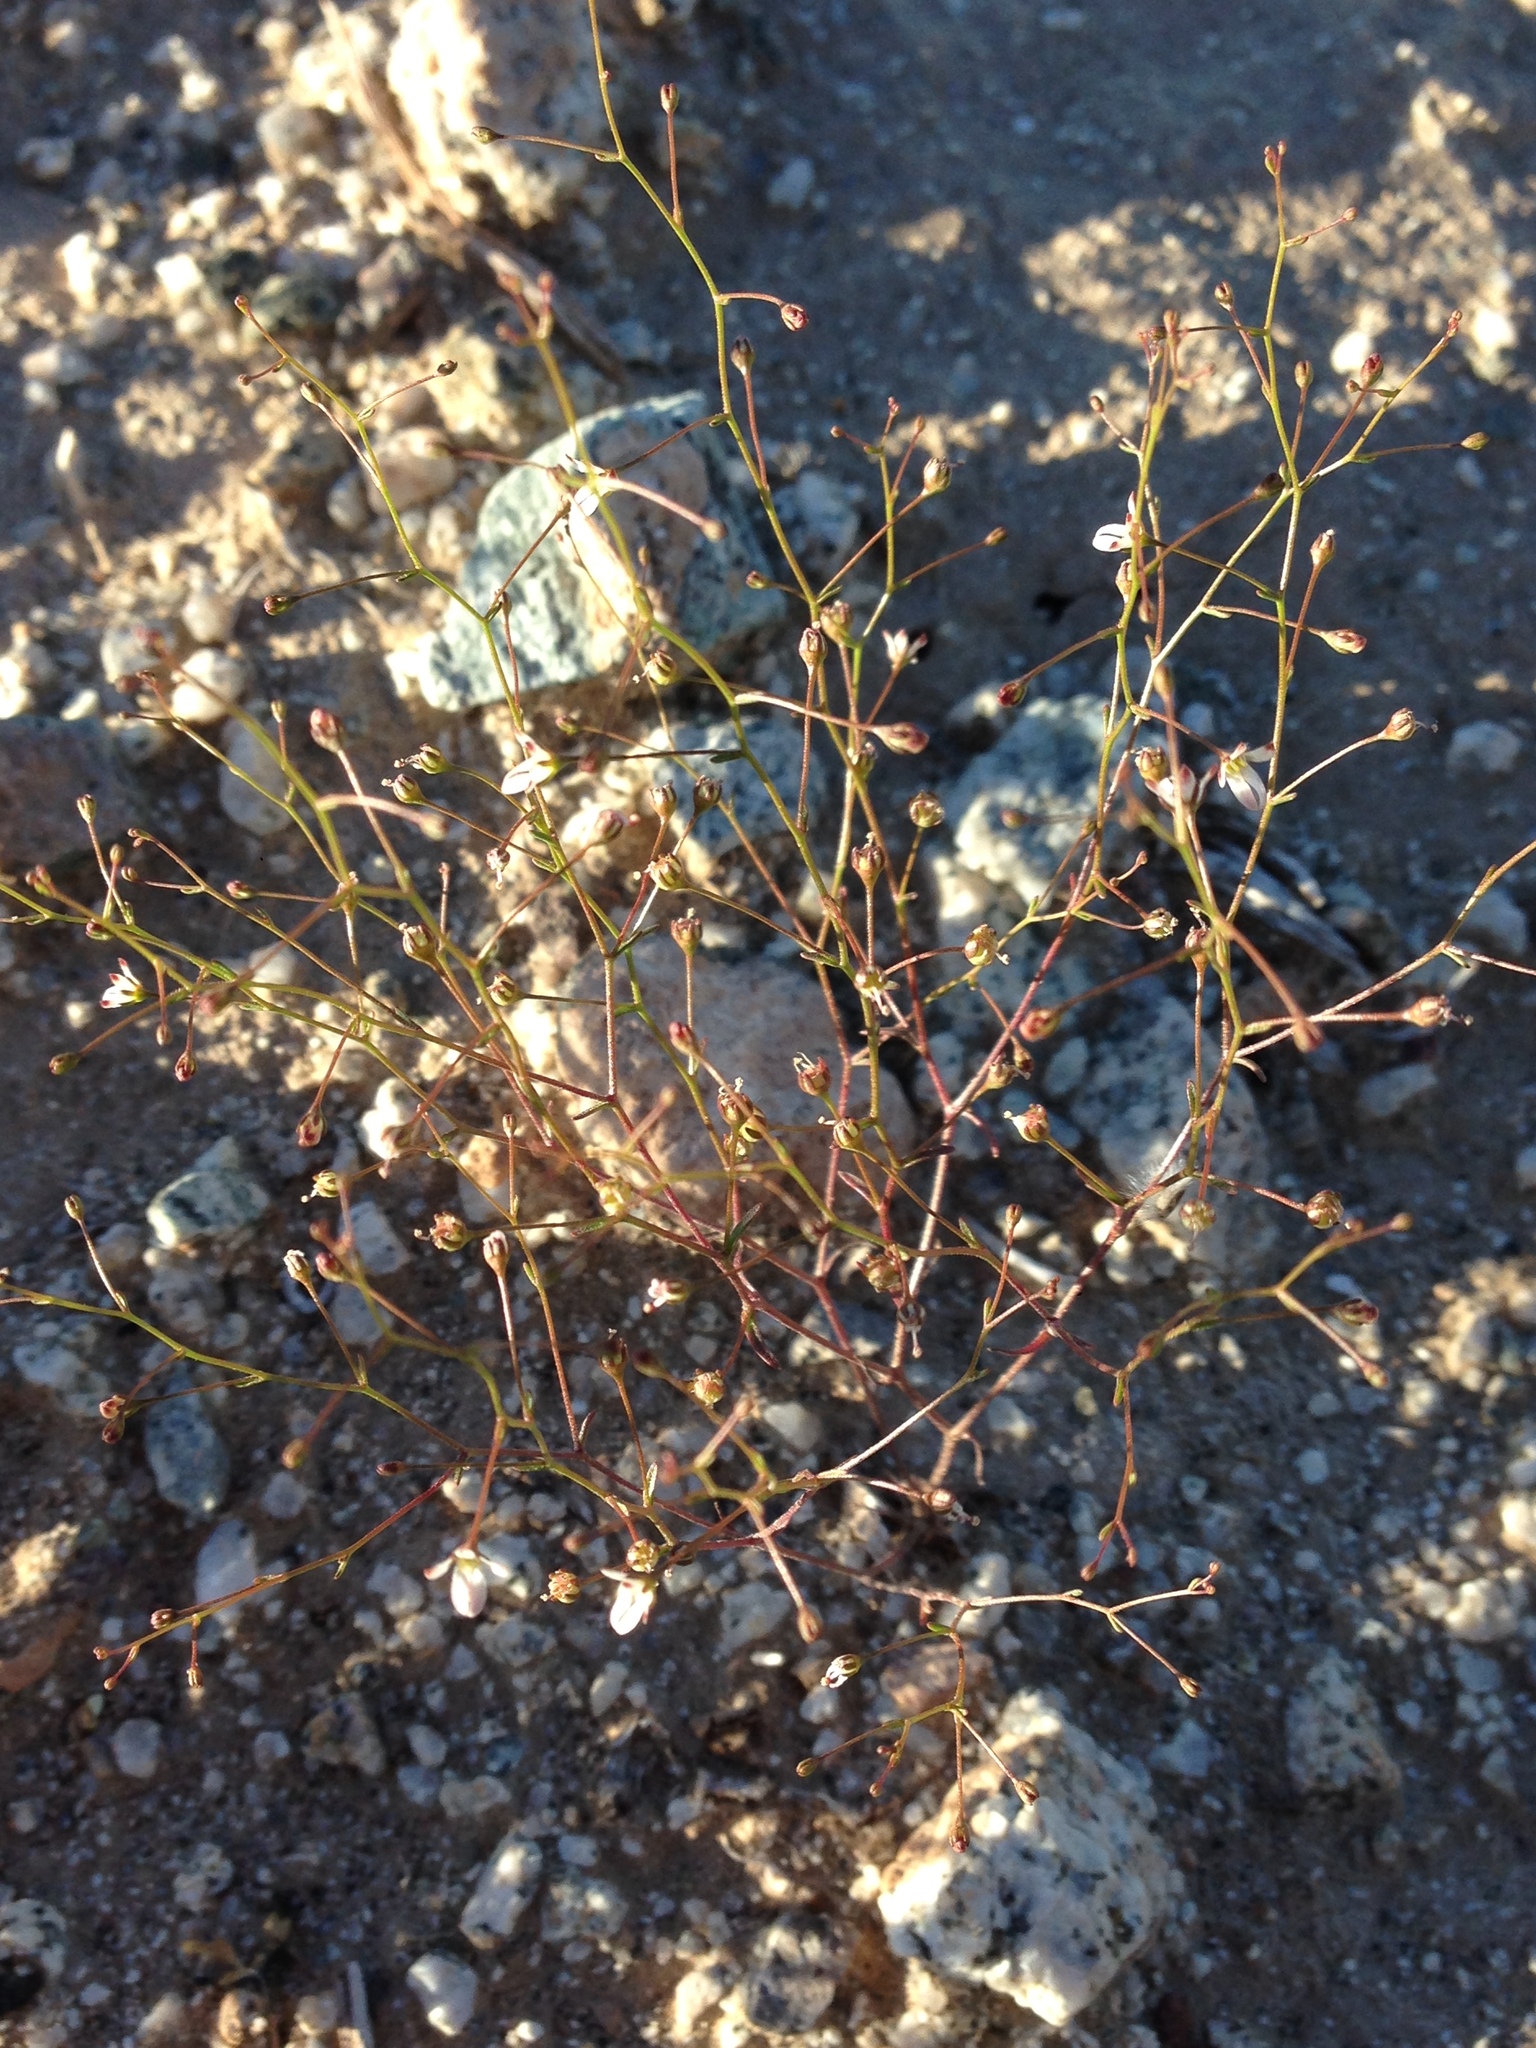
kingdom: Plantae
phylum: Tracheophyta
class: Magnoliopsida
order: Asterales
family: Campanulaceae
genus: Nemacladus
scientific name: Nemacladus orientalis
